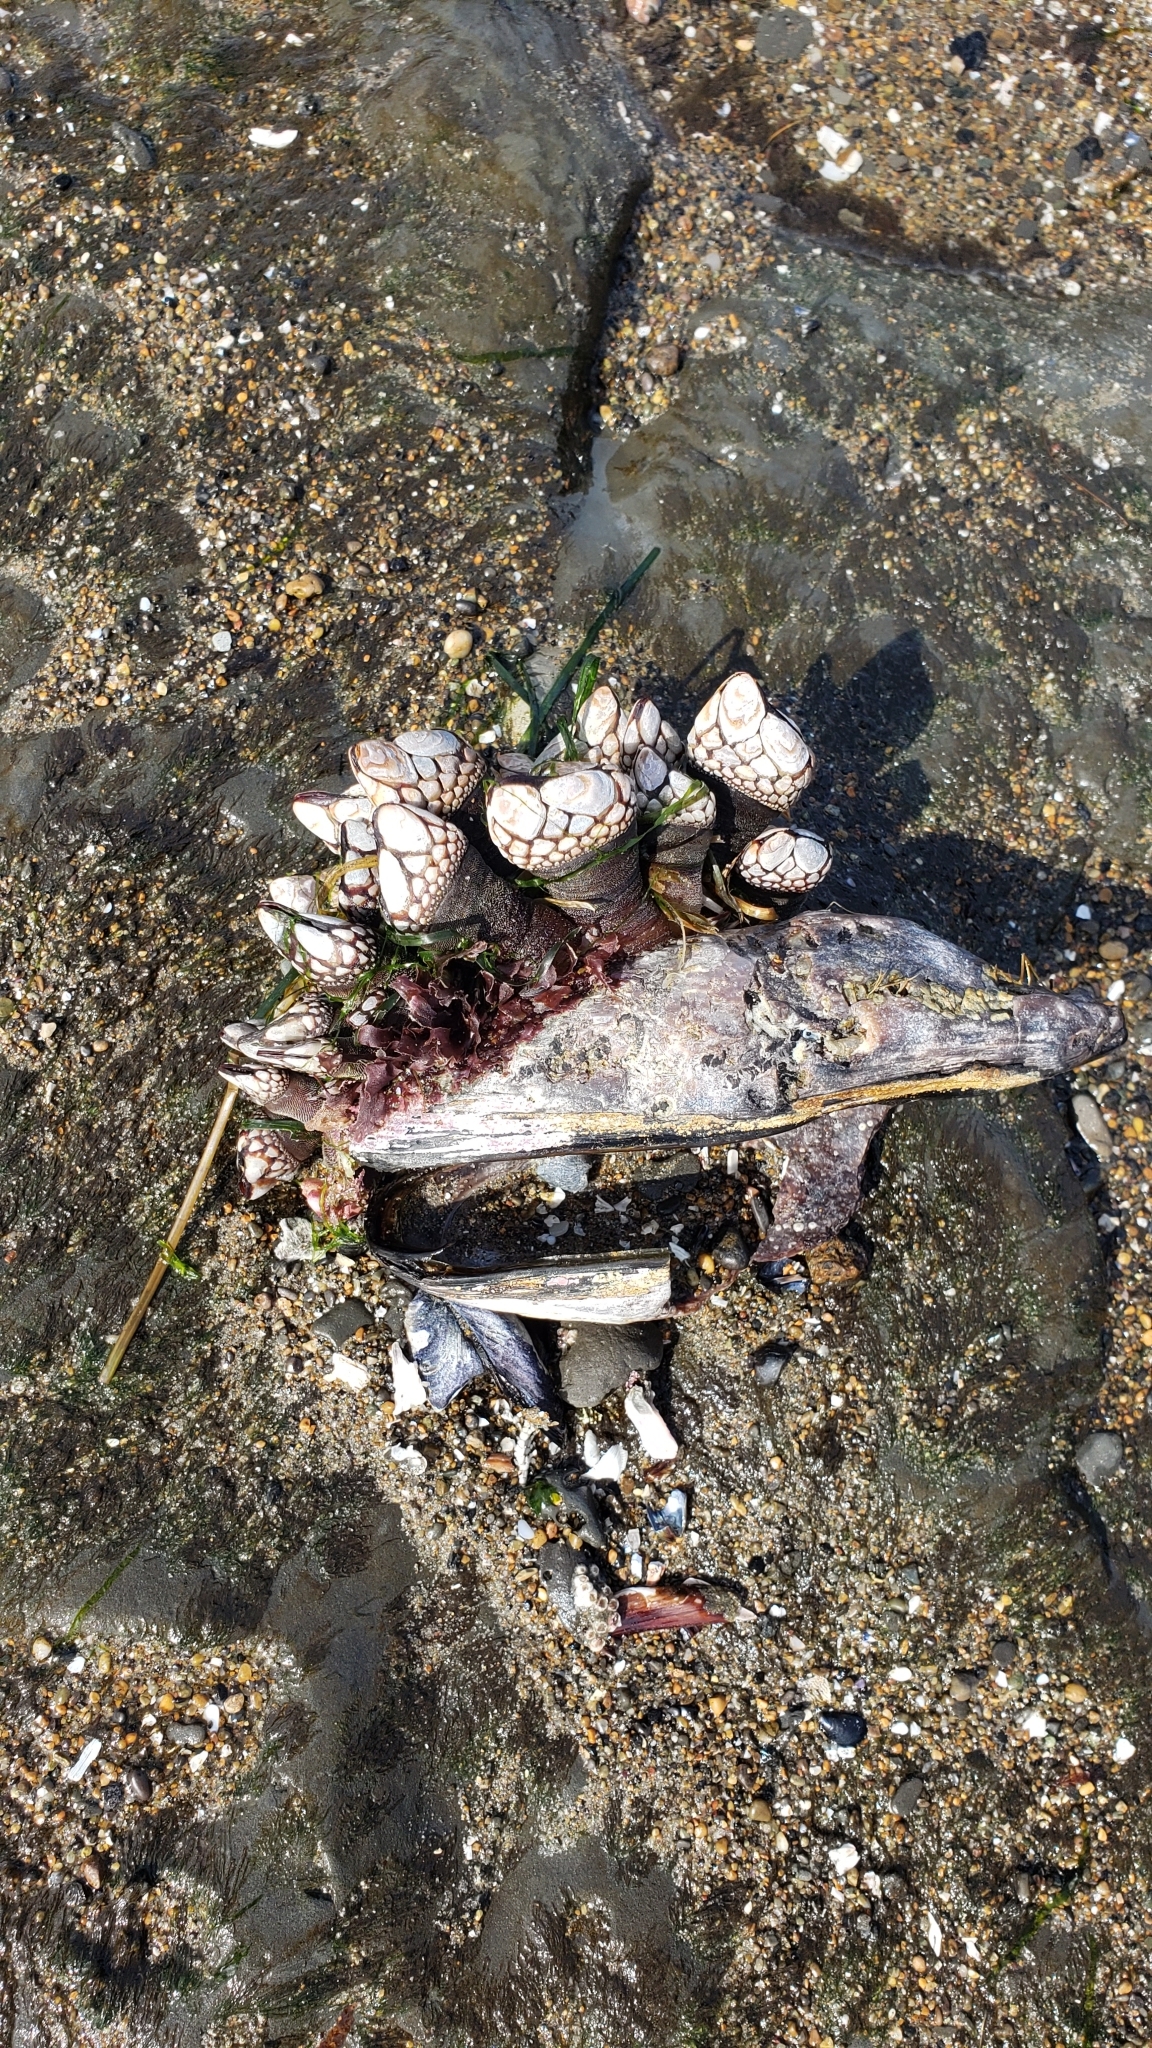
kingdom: Animalia
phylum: Arthropoda
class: Maxillopoda
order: Pedunculata
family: Pollicipedidae
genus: Pollicipes
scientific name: Pollicipes polymerus
